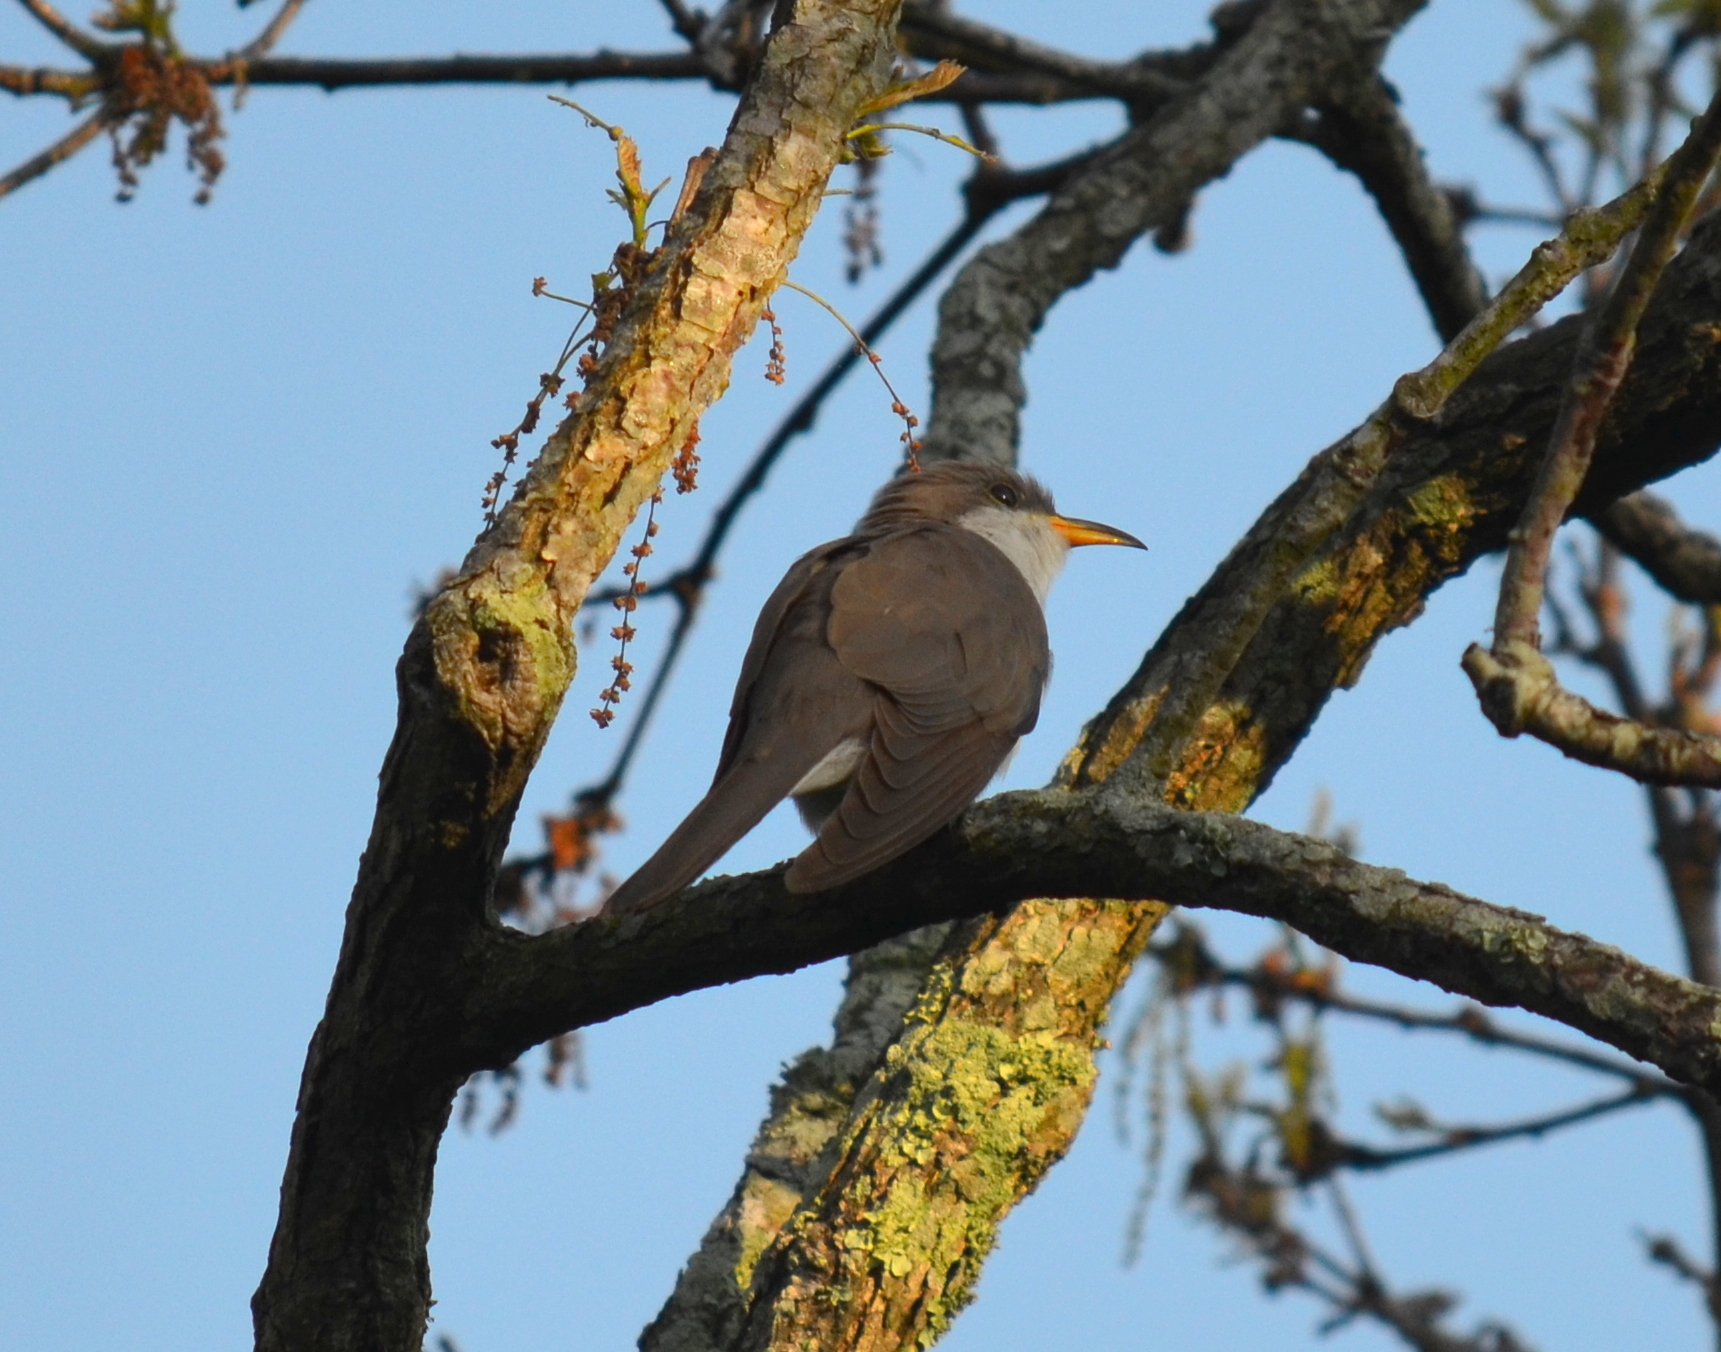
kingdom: Animalia
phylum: Chordata
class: Aves
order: Cuculiformes
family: Cuculidae
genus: Coccyzus
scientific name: Coccyzus americanus
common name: Yellow-billed cuckoo
